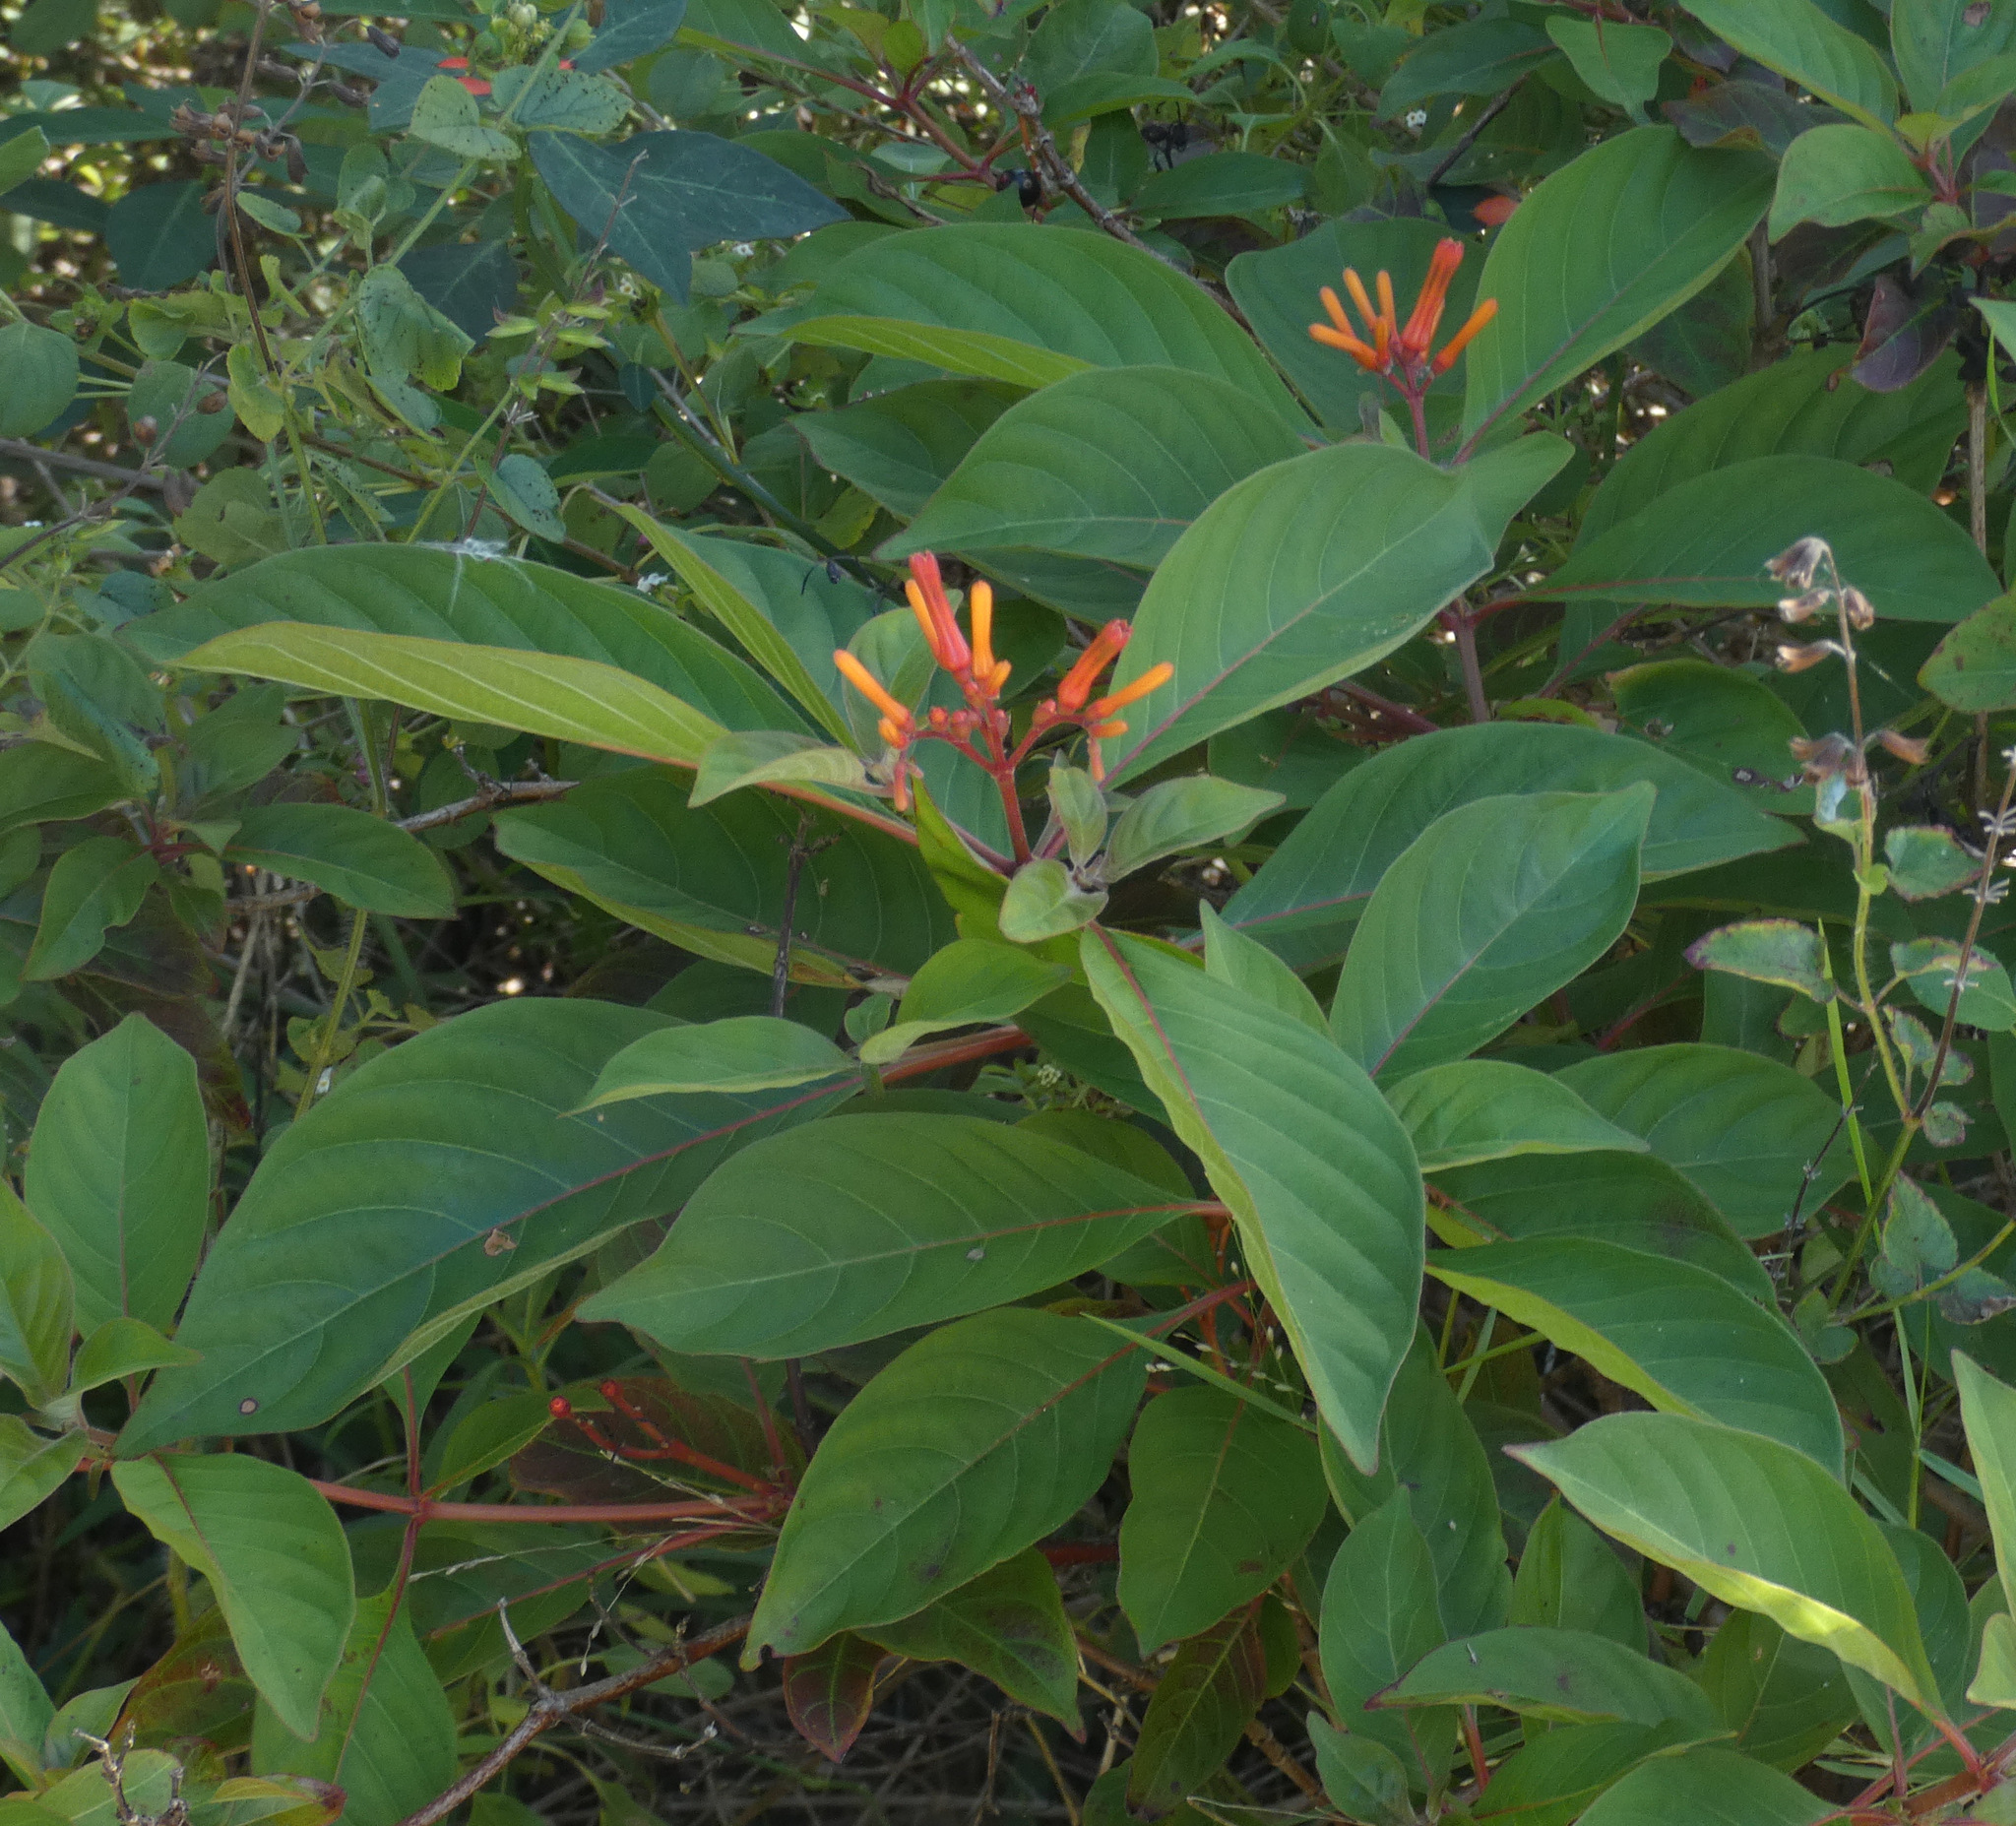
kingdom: Plantae
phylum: Tracheophyta
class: Magnoliopsida
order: Gentianales
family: Rubiaceae
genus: Hamelia
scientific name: Hamelia patens
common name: Redhead
